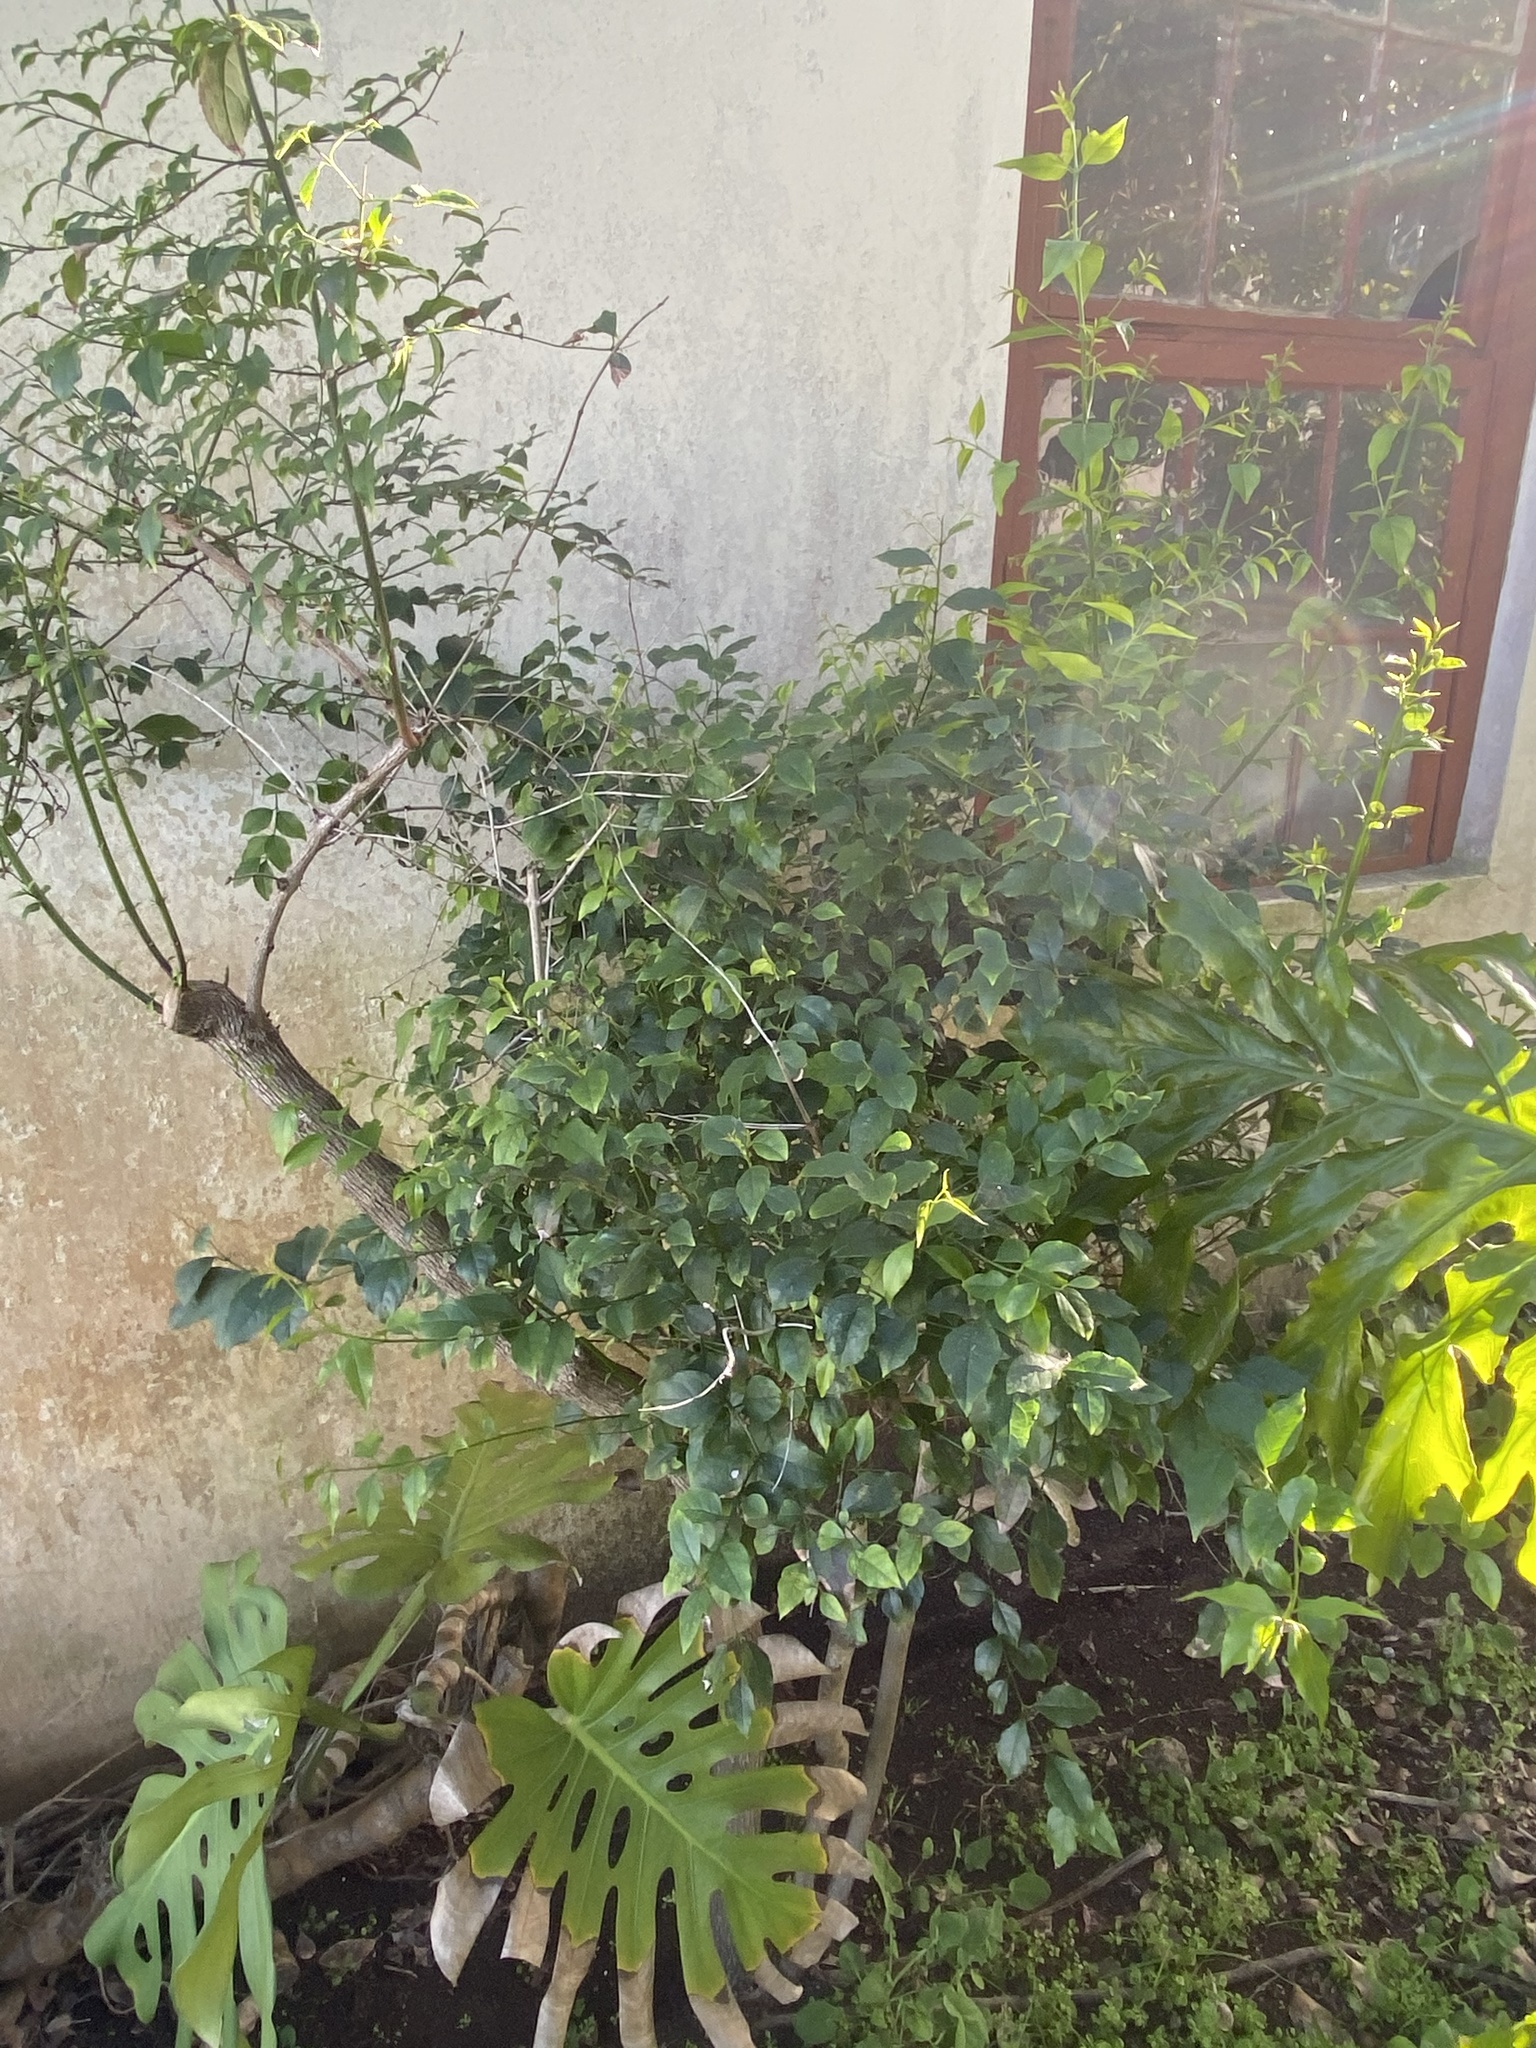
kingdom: Plantae
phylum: Tracheophyta
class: Magnoliopsida
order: Lamiales
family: Stilbaceae
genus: Halleria
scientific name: Halleria lucida
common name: Tree fuschia
